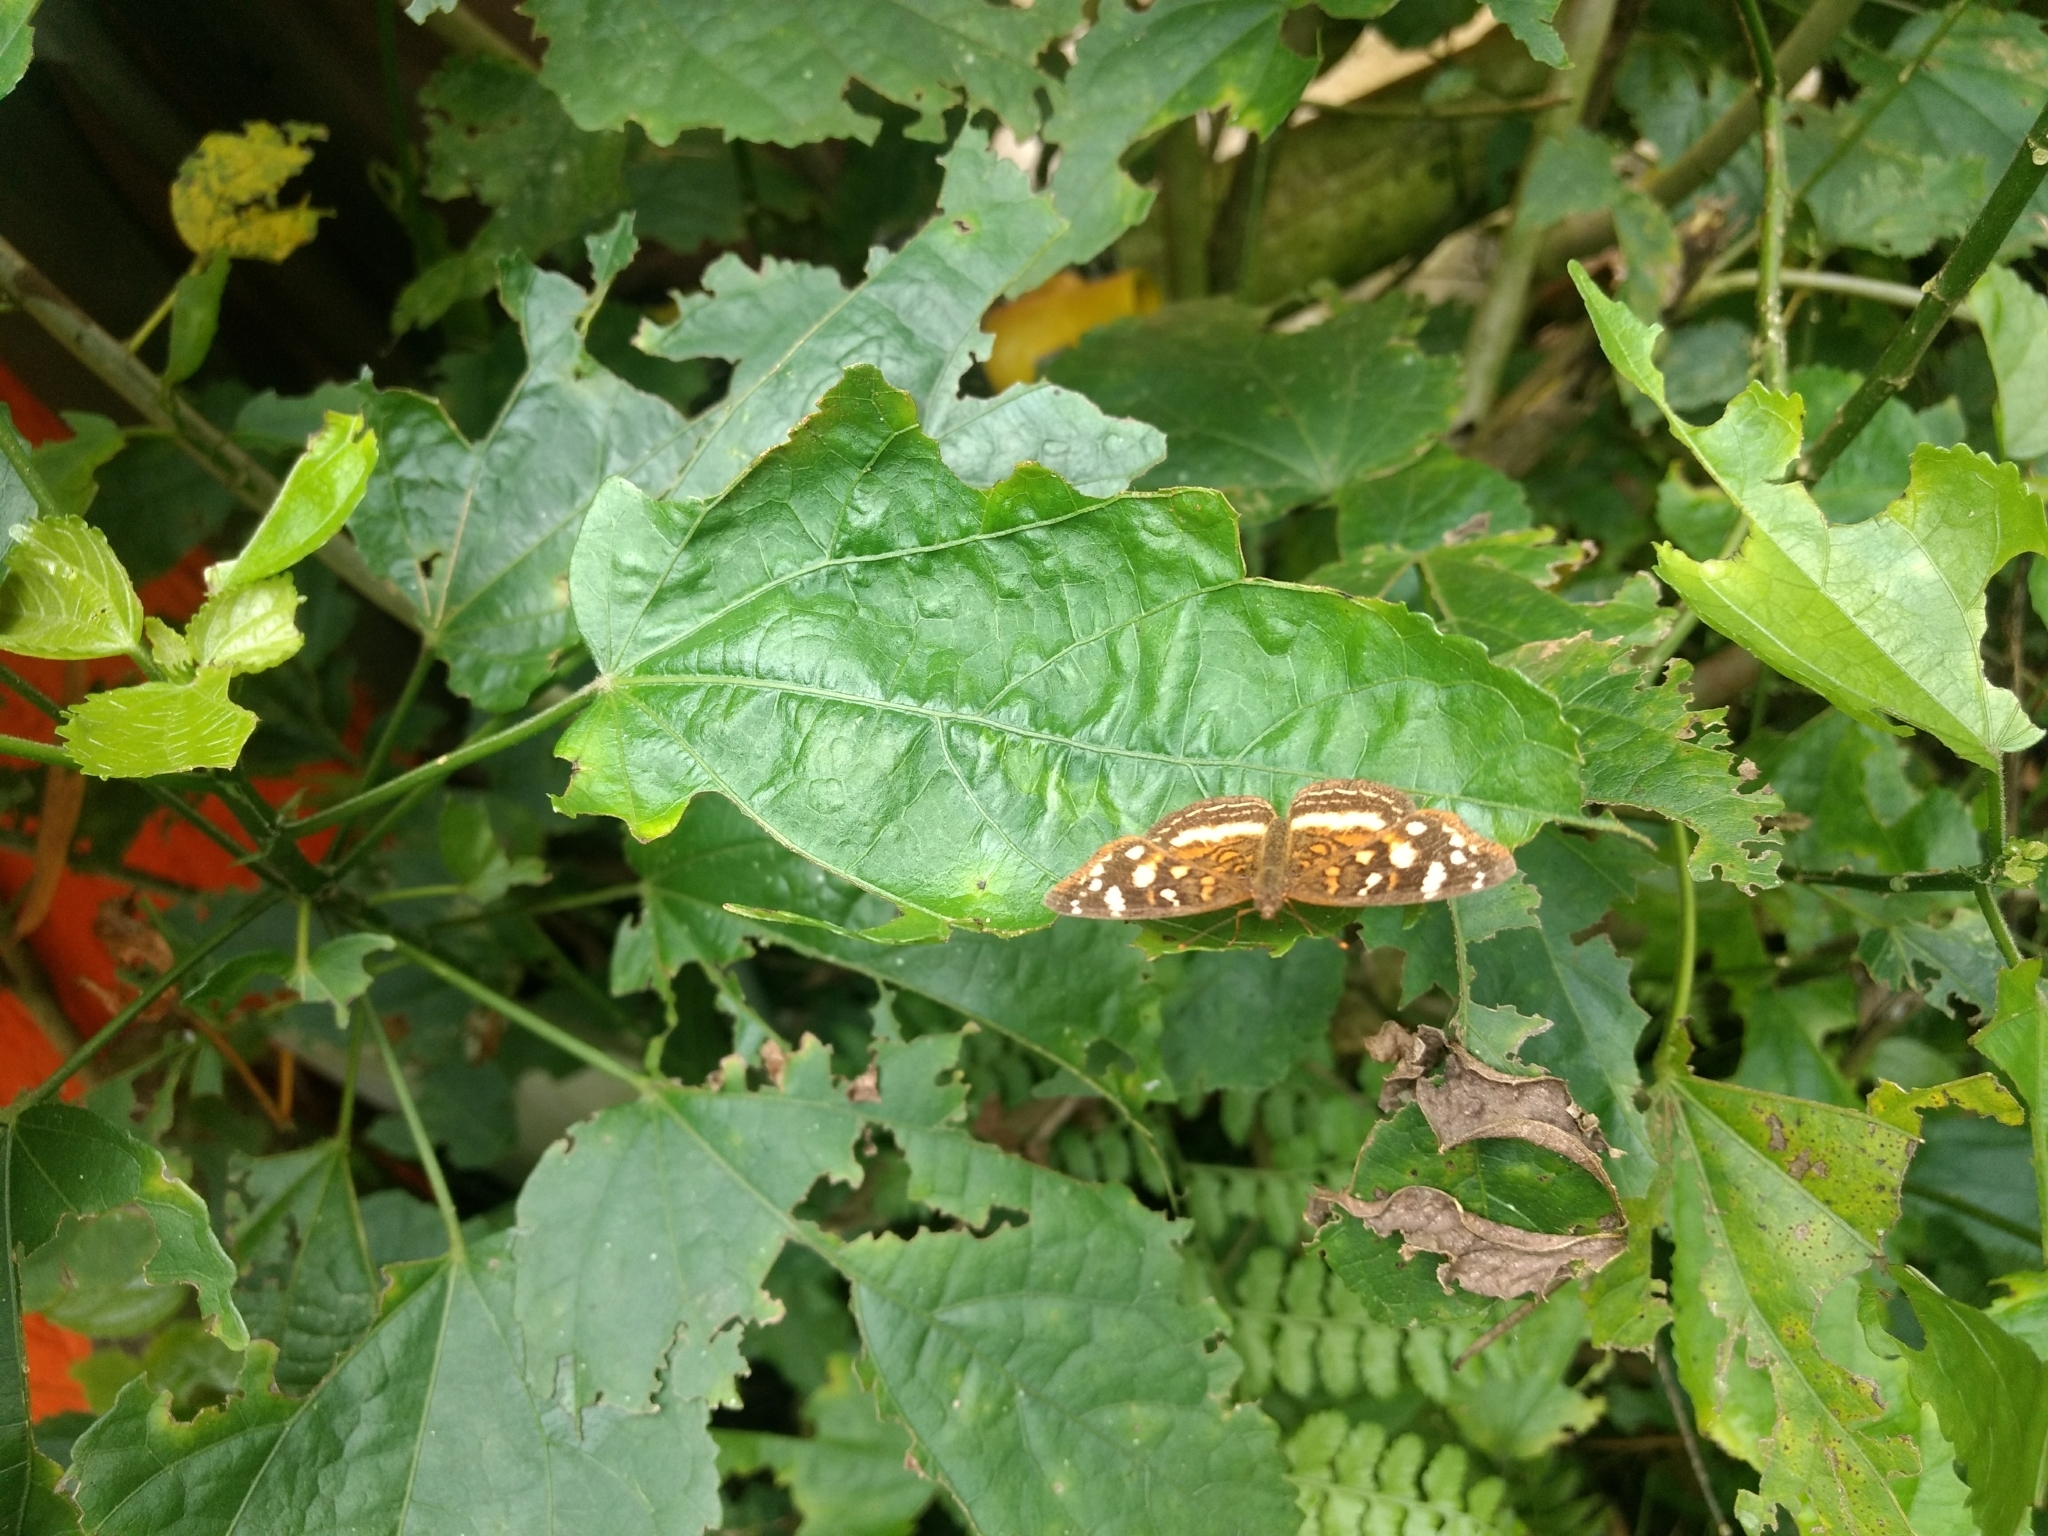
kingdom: Animalia
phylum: Arthropoda
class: Insecta
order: Lepidoptera
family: Nymphalidae
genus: Anthanassa
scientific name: Anthanassa drusilla
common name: Orange-patched crescent
